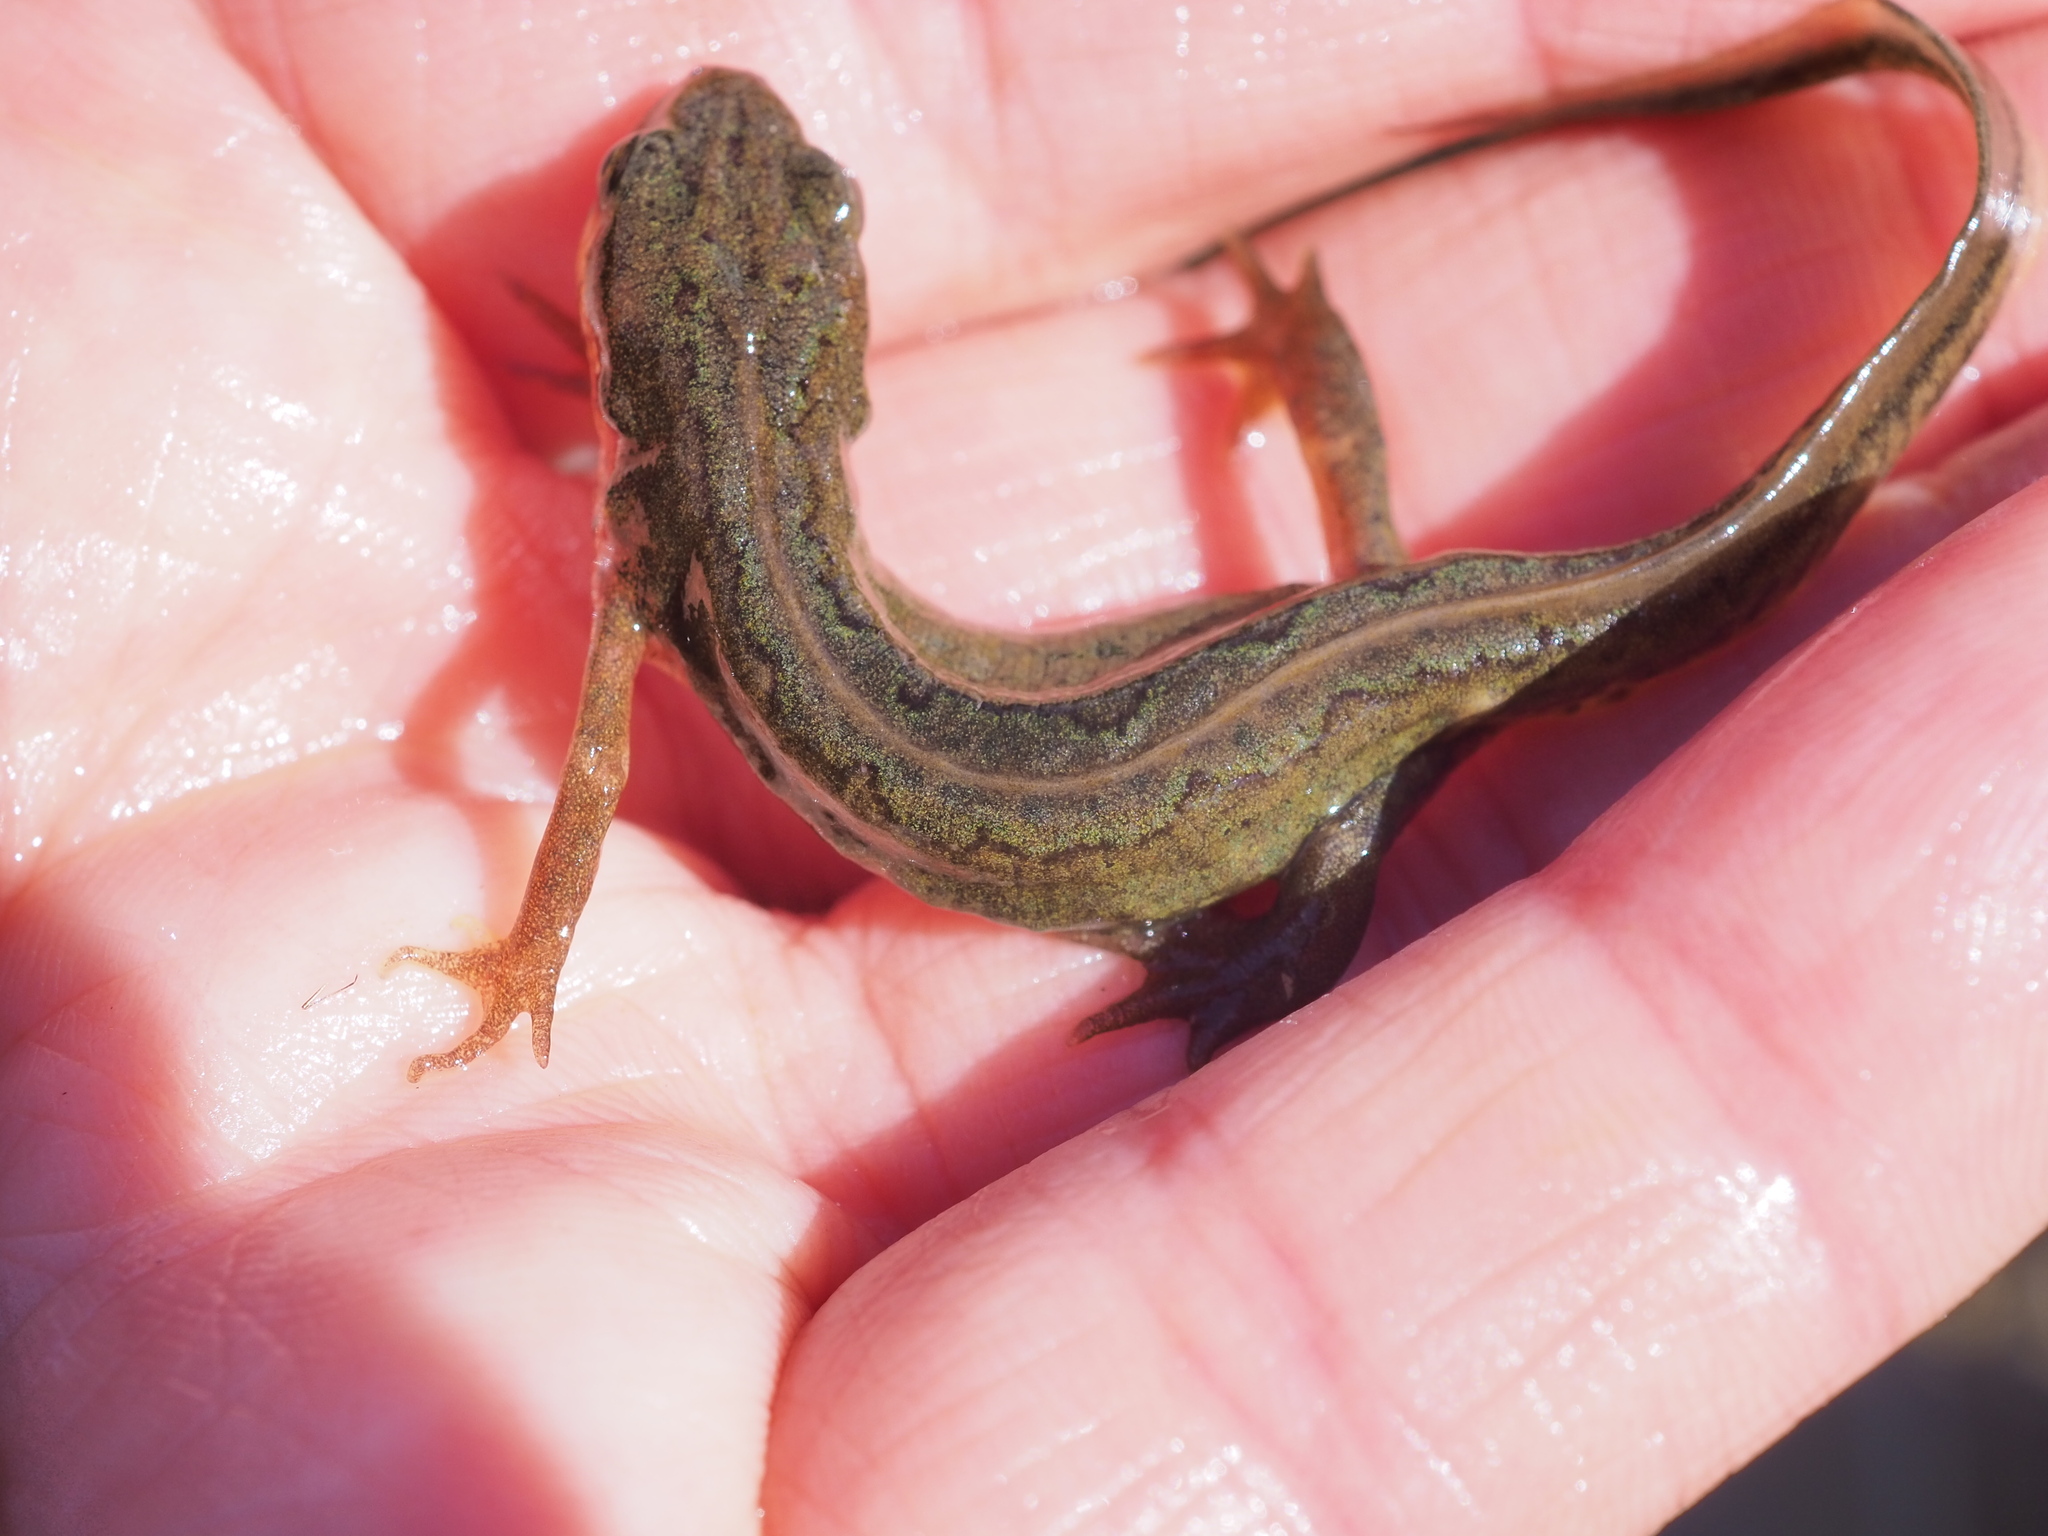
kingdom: Animalia
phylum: Chordata
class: Amphibia
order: Caudata
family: Salamandridae
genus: Lissotriton
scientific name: Lissotriton helveticus
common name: Palmate newt
